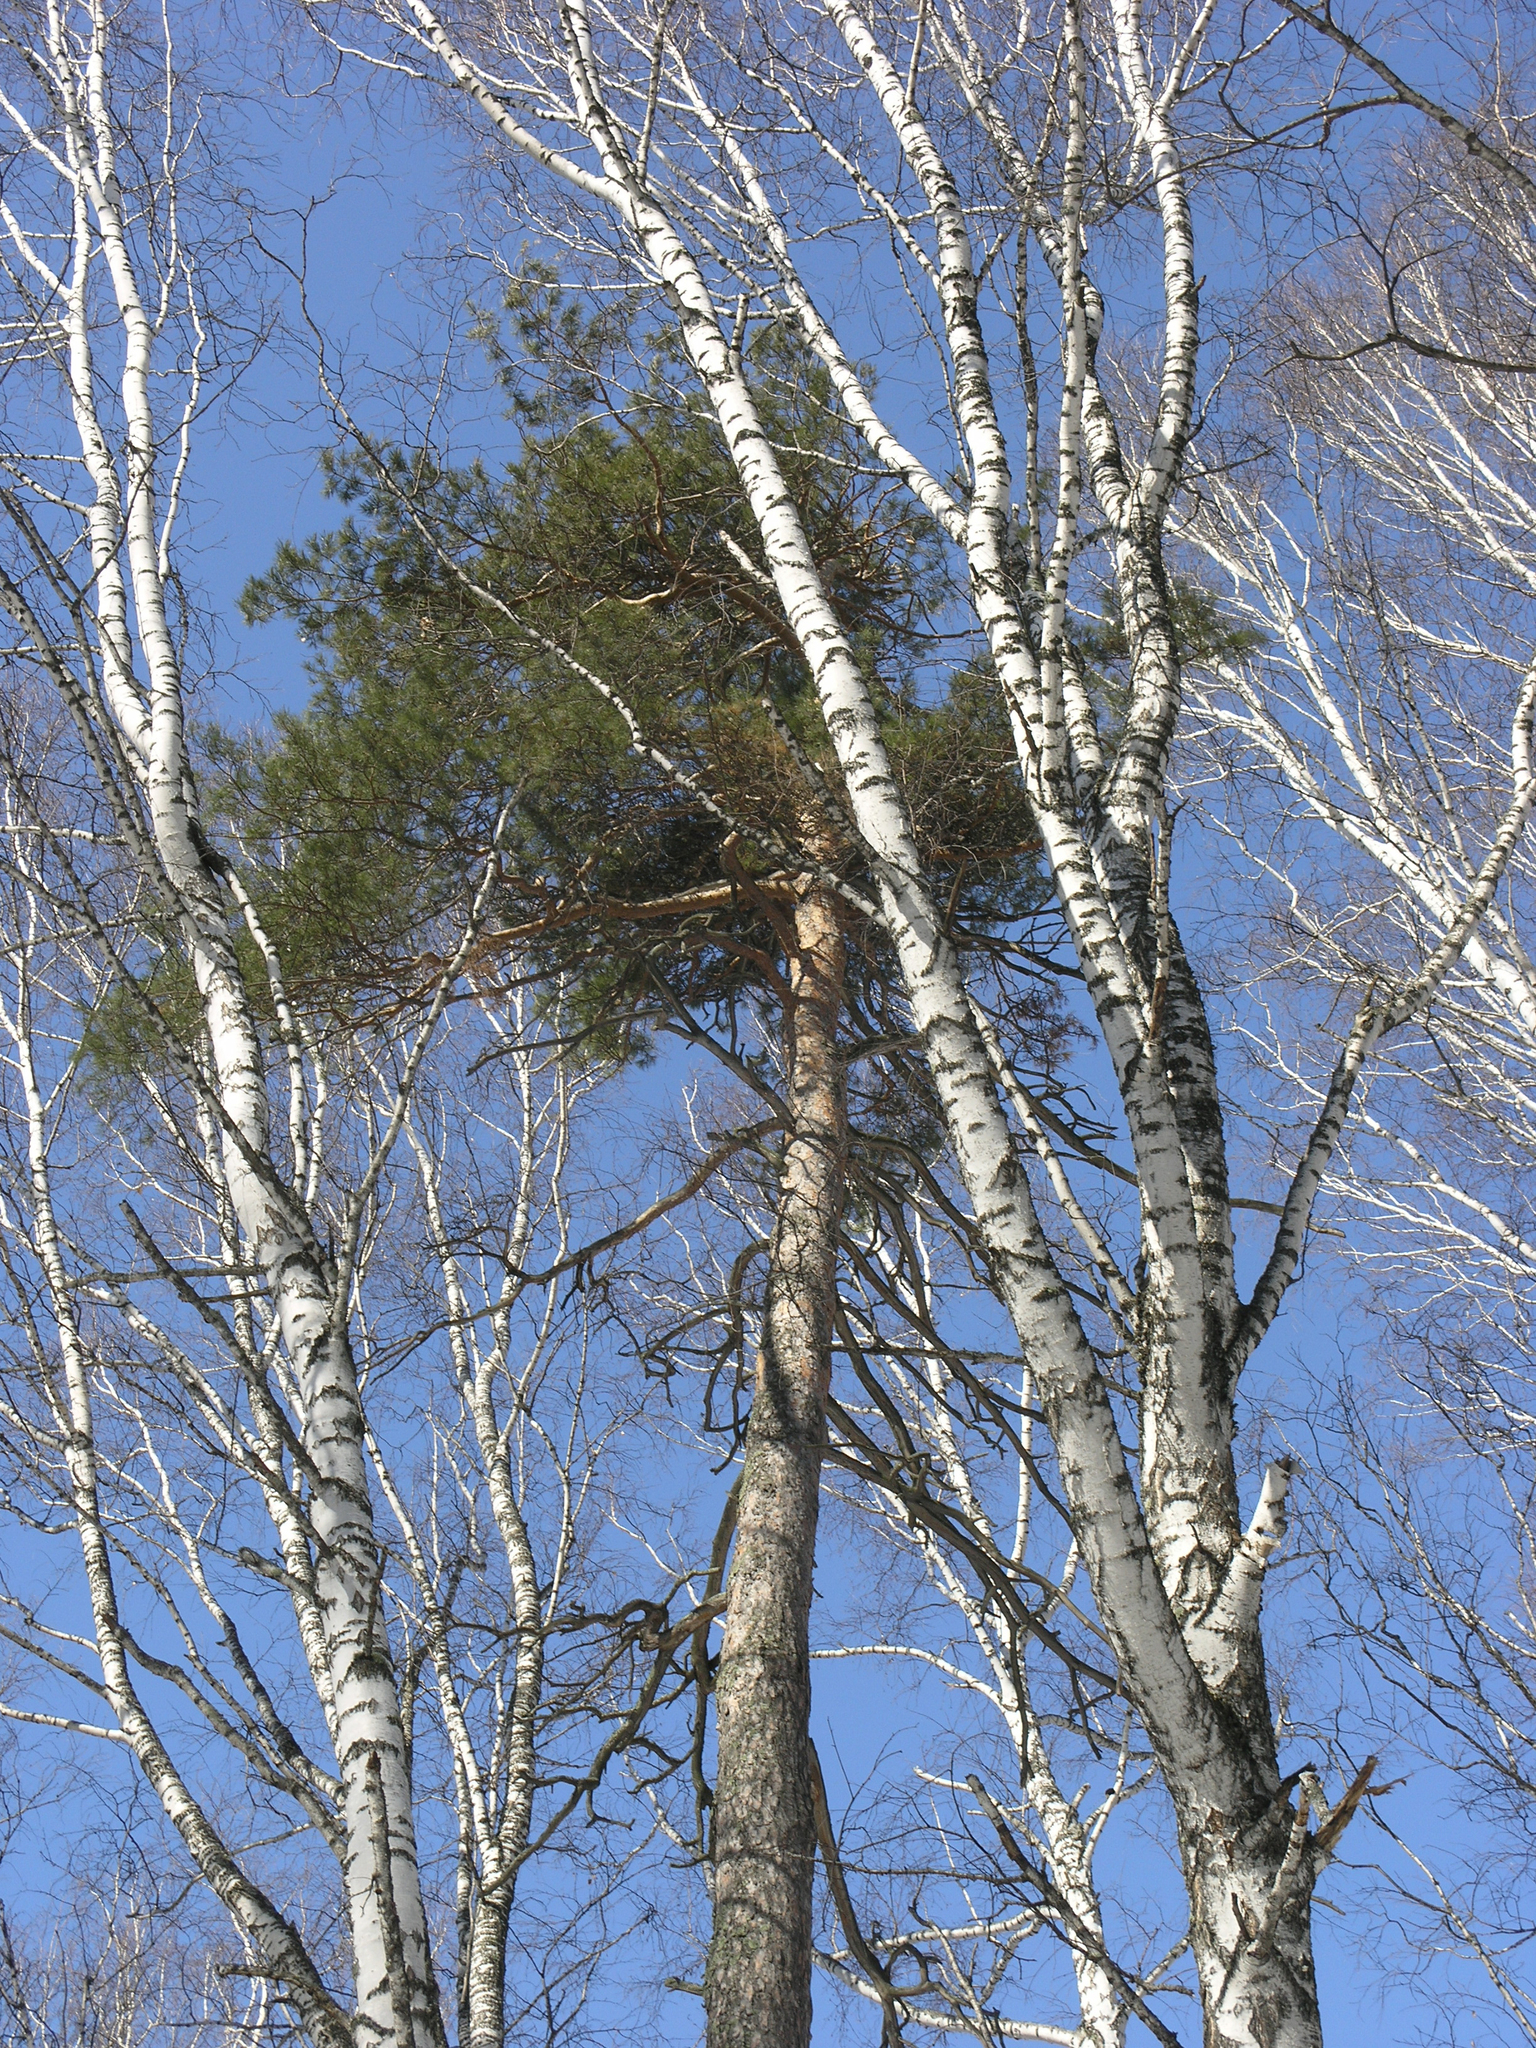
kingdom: Plantae
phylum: Tracheophyta
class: Magnoliopsida
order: Fagales
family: Betulaceae
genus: Betula
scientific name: Betula pendula
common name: Silver birch
